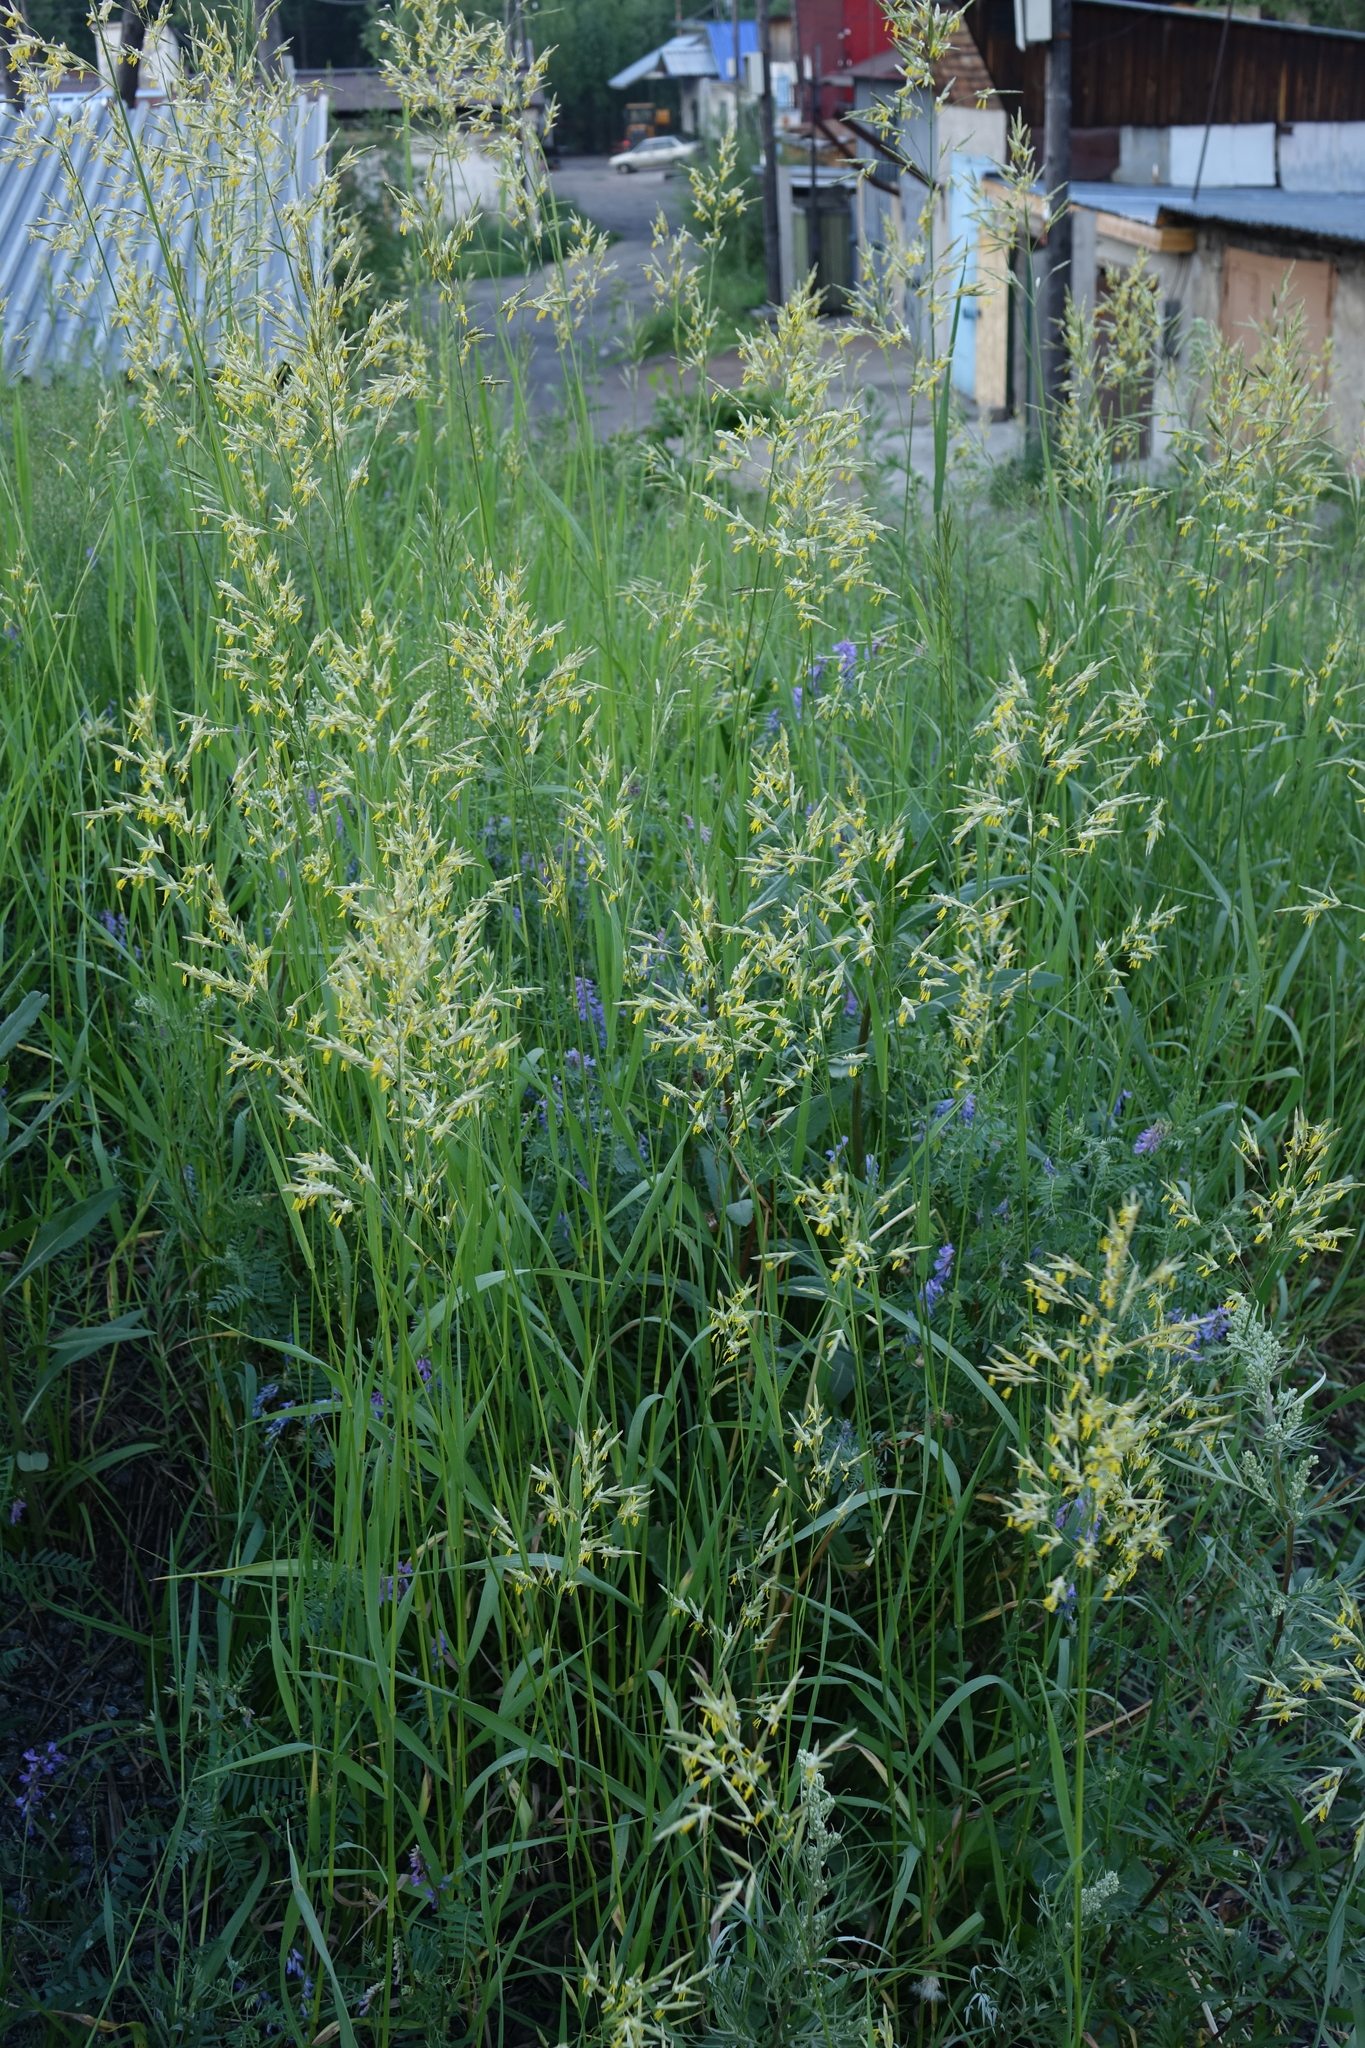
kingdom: Plantae
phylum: Tracheophyta
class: Liliopsida
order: Poales
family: Poaceae
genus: Bromus
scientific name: Bromus inermis
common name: Smooth brome
